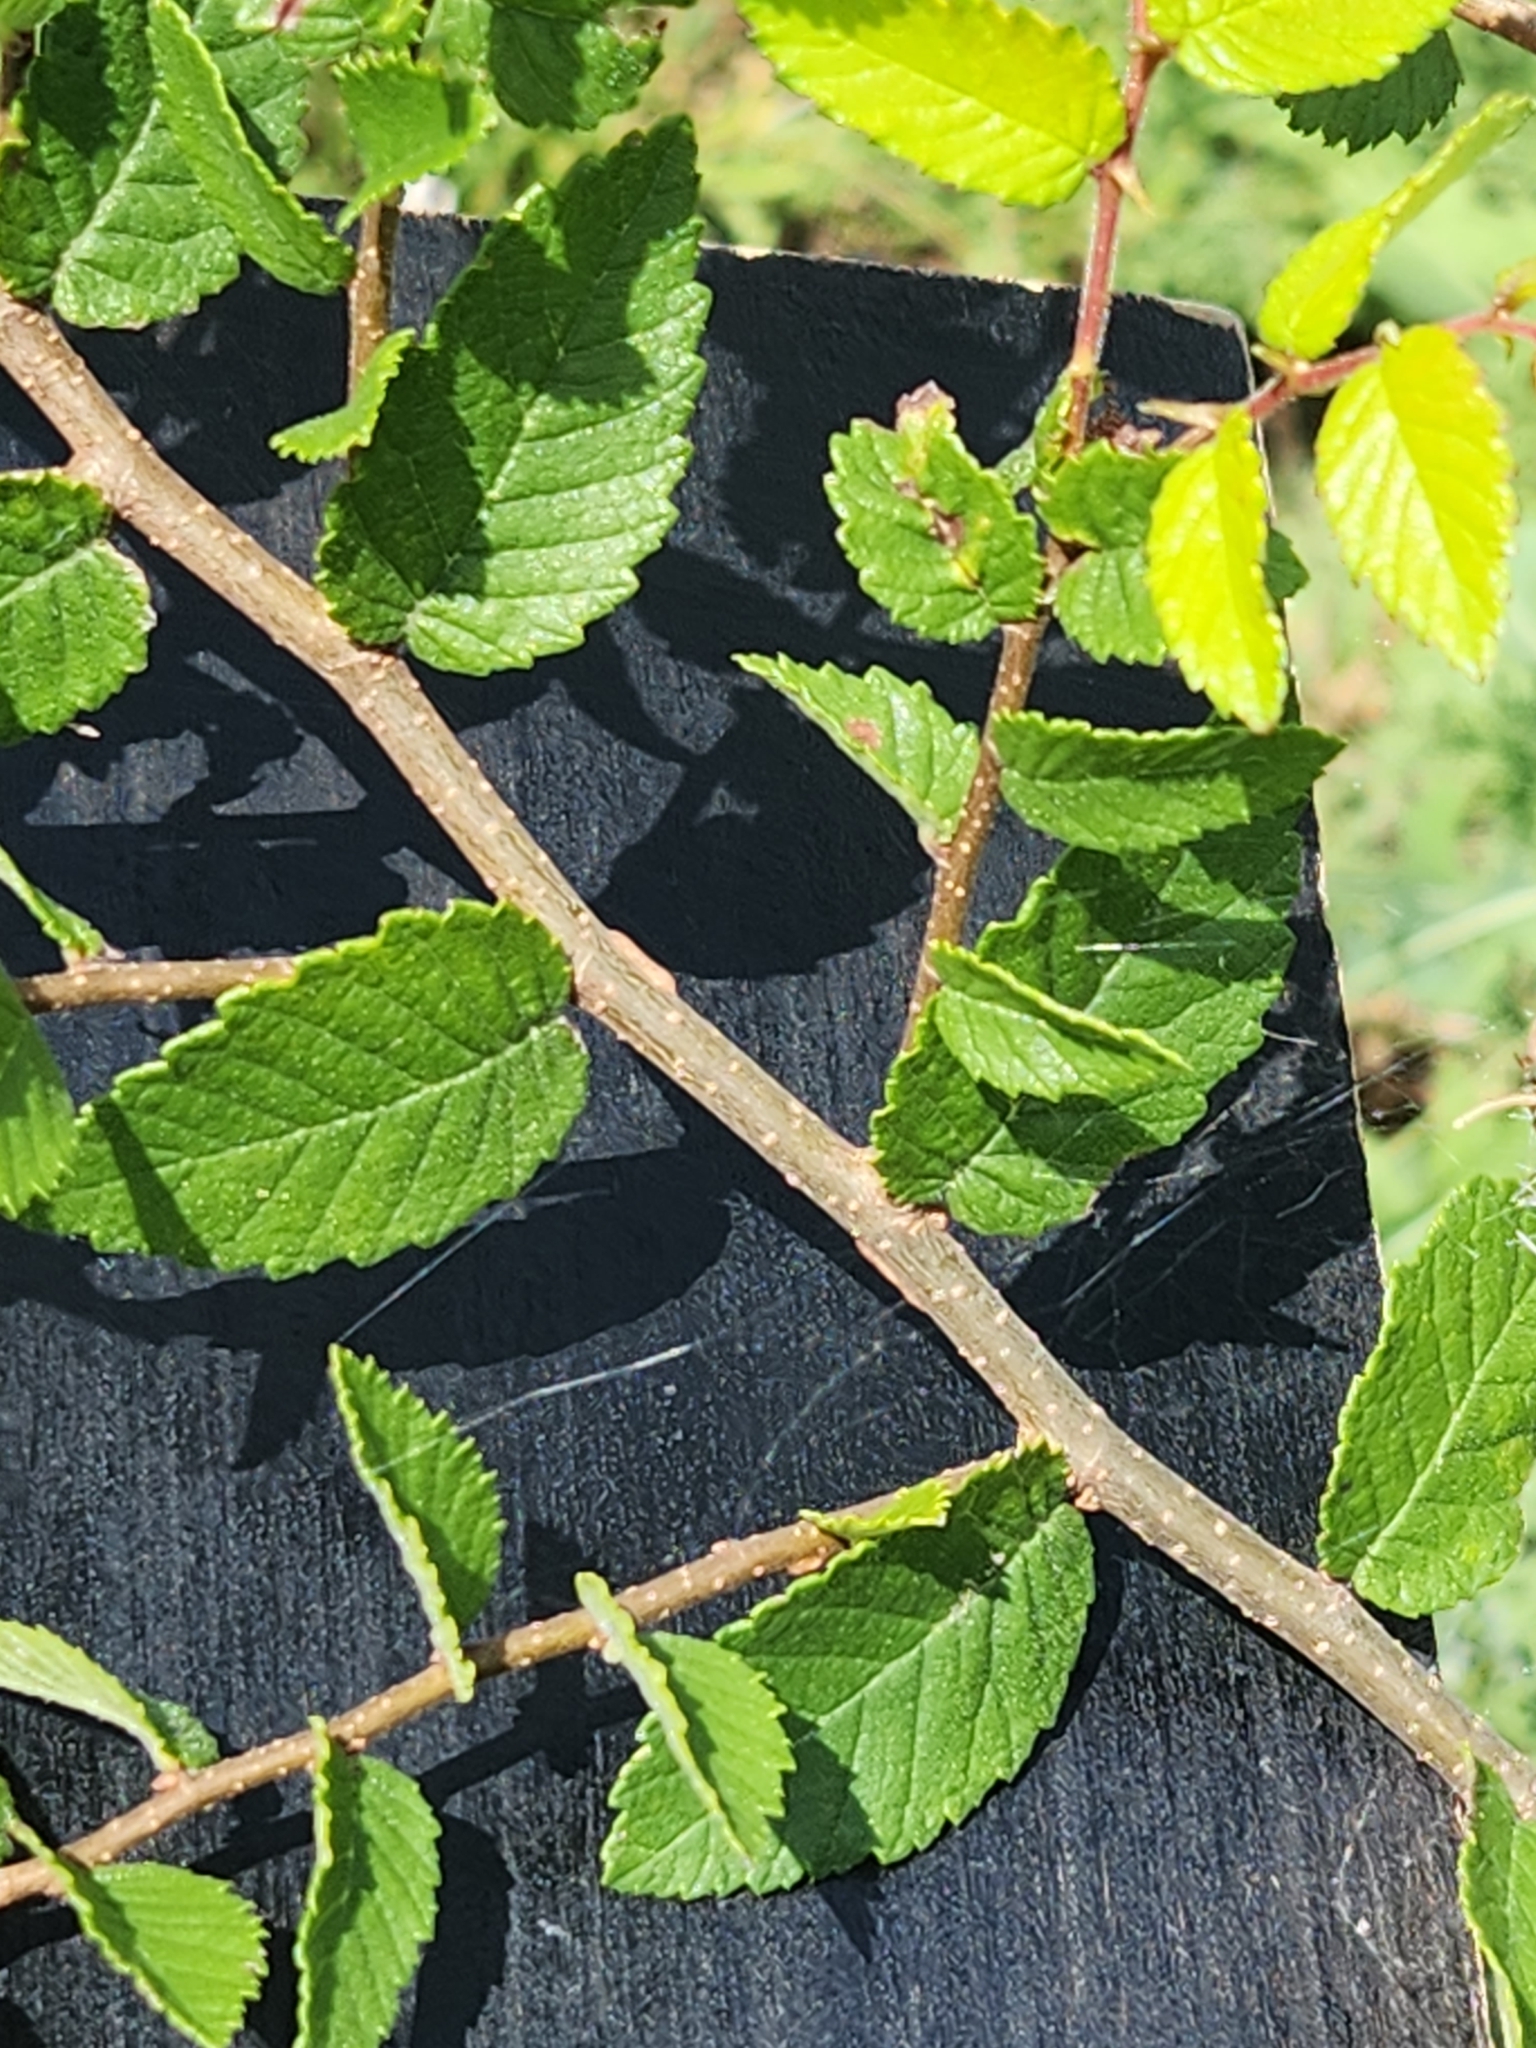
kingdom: Plantae
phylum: Tracheophyta
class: Magnoliopsida
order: Rosales
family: Ulmaceae
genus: Ulmus
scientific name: Ulmus crassifolia
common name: Basket elm
